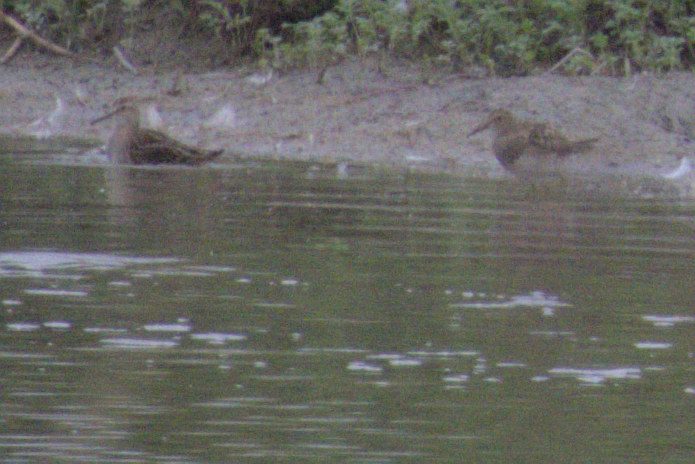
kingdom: Animalia
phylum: Chordata
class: Aves
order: Charadriiformes
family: Scolopacidae
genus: Calidris
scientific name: Calidris melanotos
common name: Pectoral sandpiper
